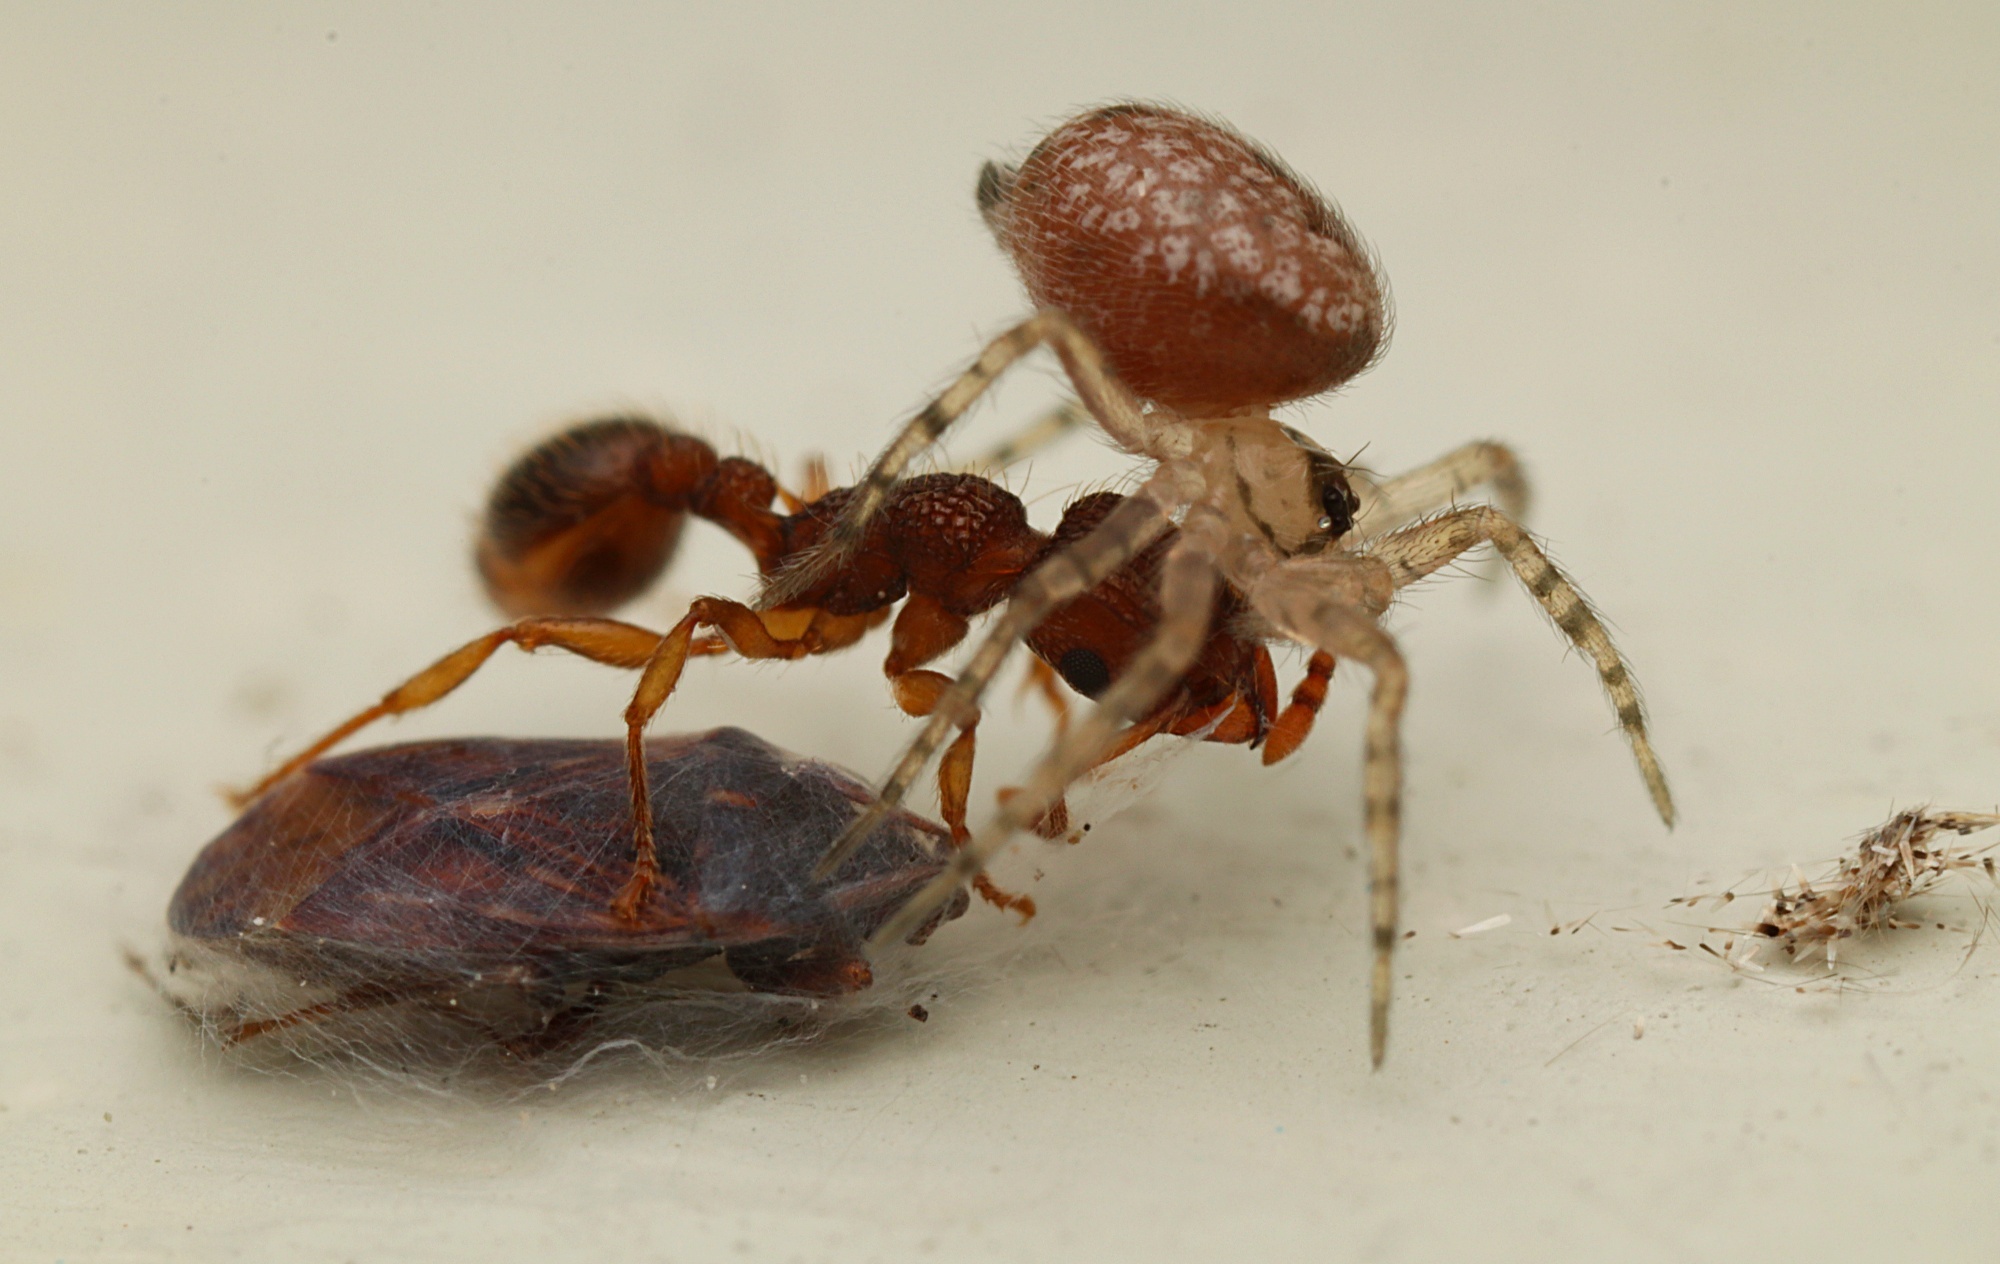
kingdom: Animalia
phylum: Arthropoda
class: Arachnida
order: Araneae
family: Oecobiidae
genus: Oecobius
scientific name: Oecobius navus
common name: Flatmesh weaver
